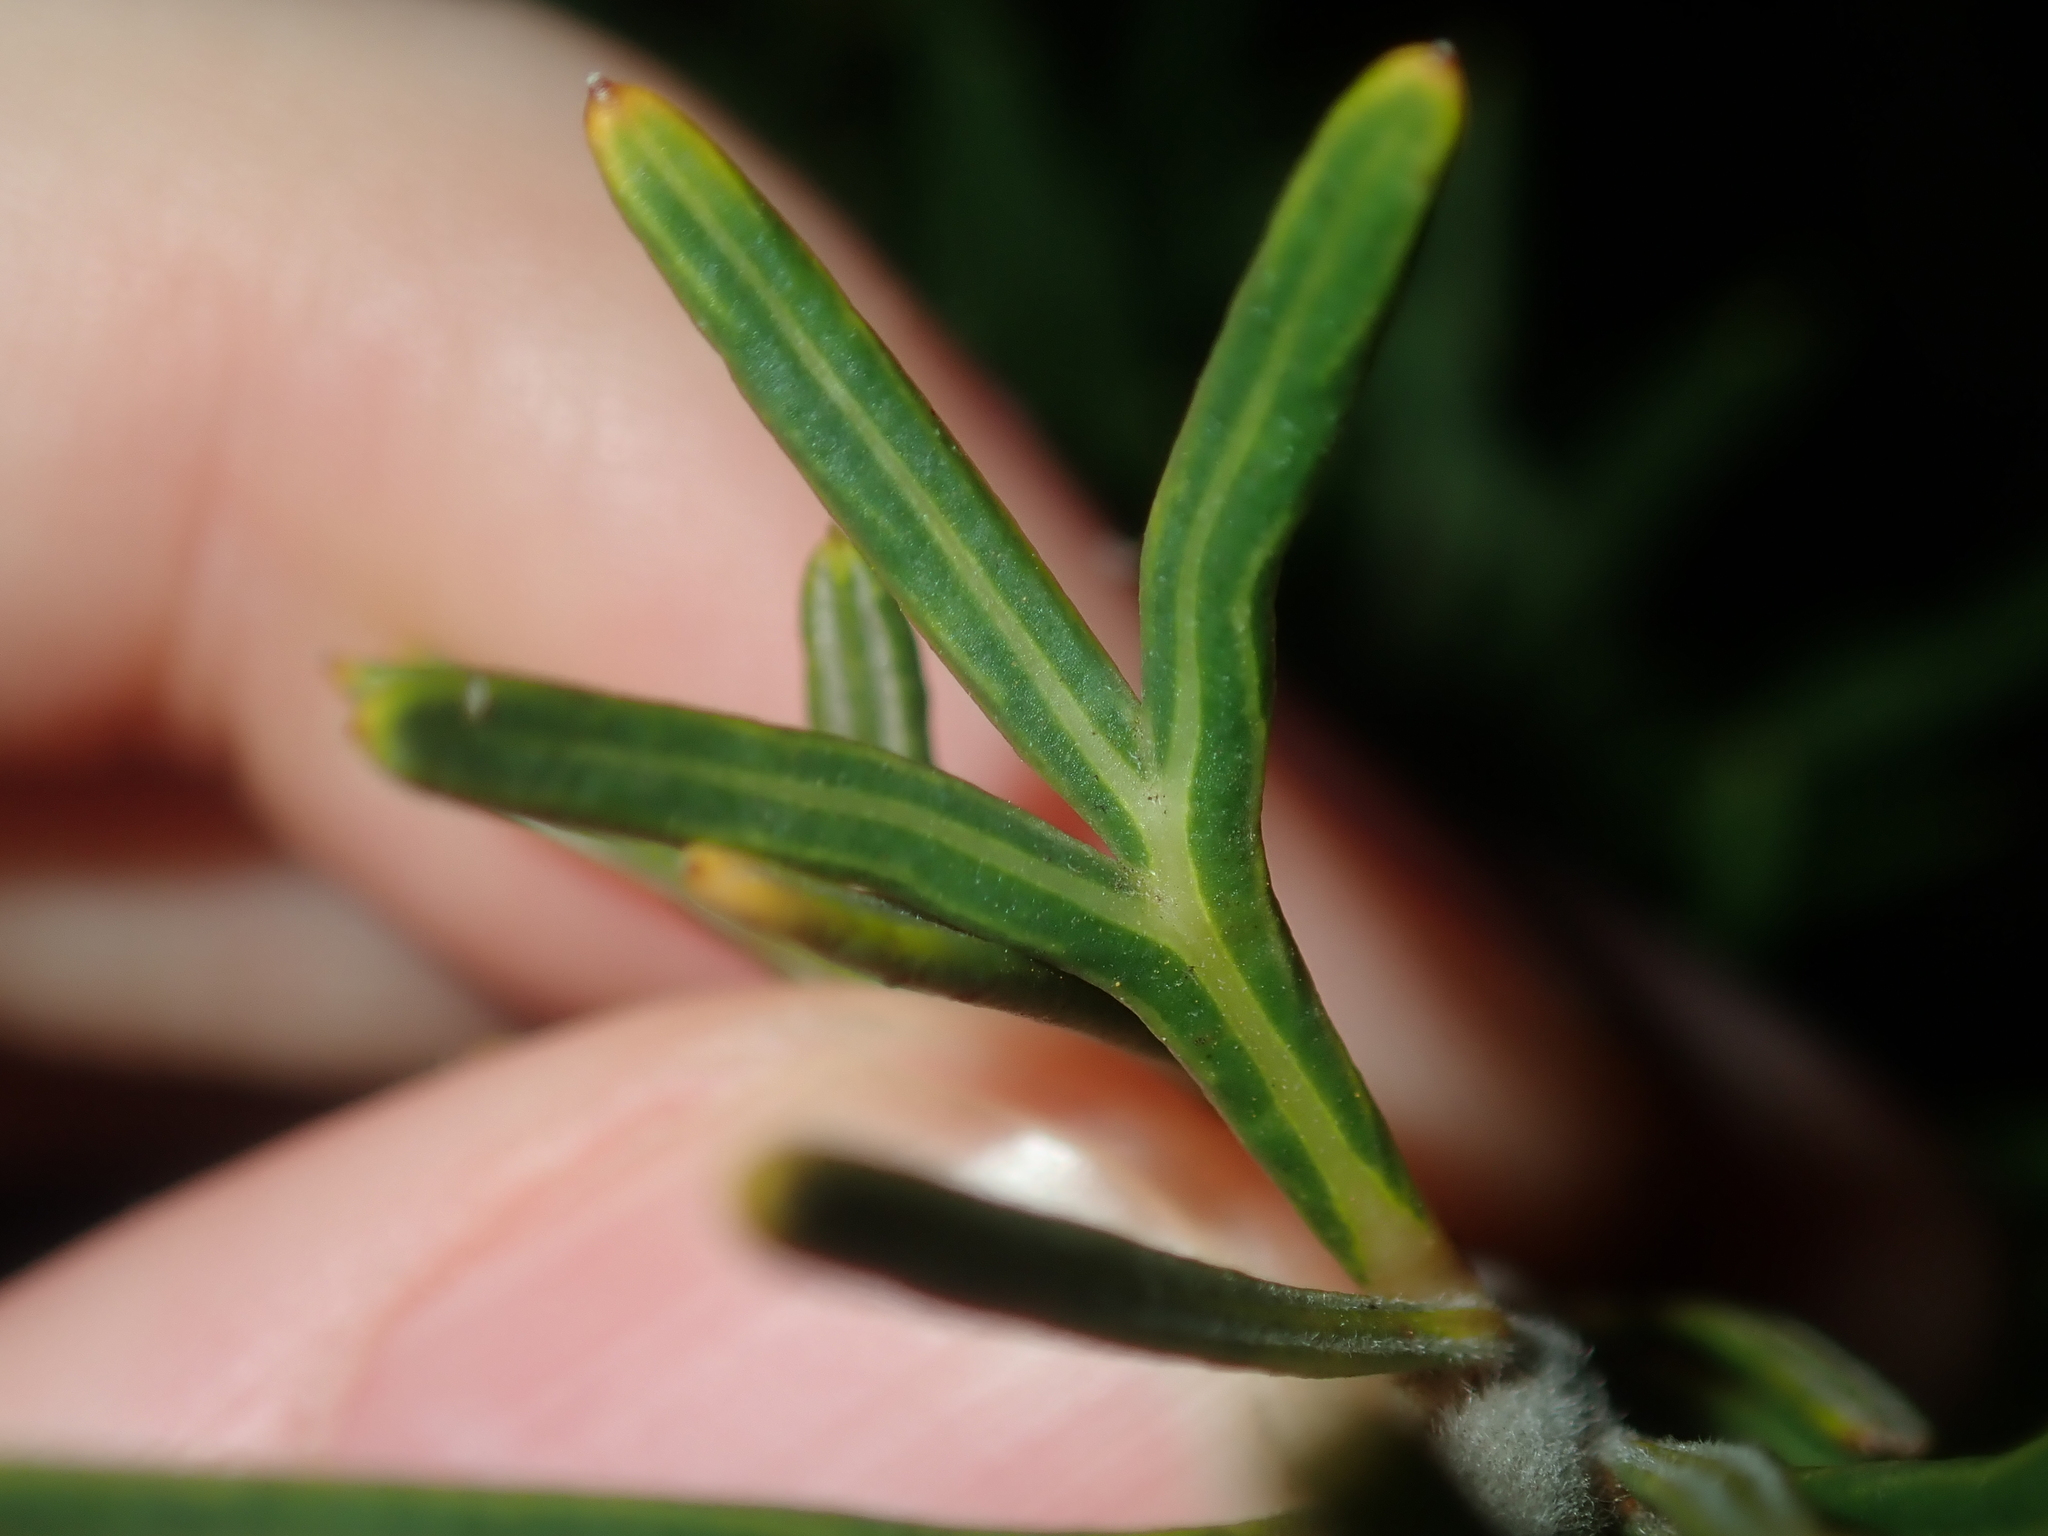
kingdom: Plantae
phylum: Tracheophyta
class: Magnoliopsida
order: Proteales
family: Proteaceae
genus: Grevillea
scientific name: Grevillea trachytheca
